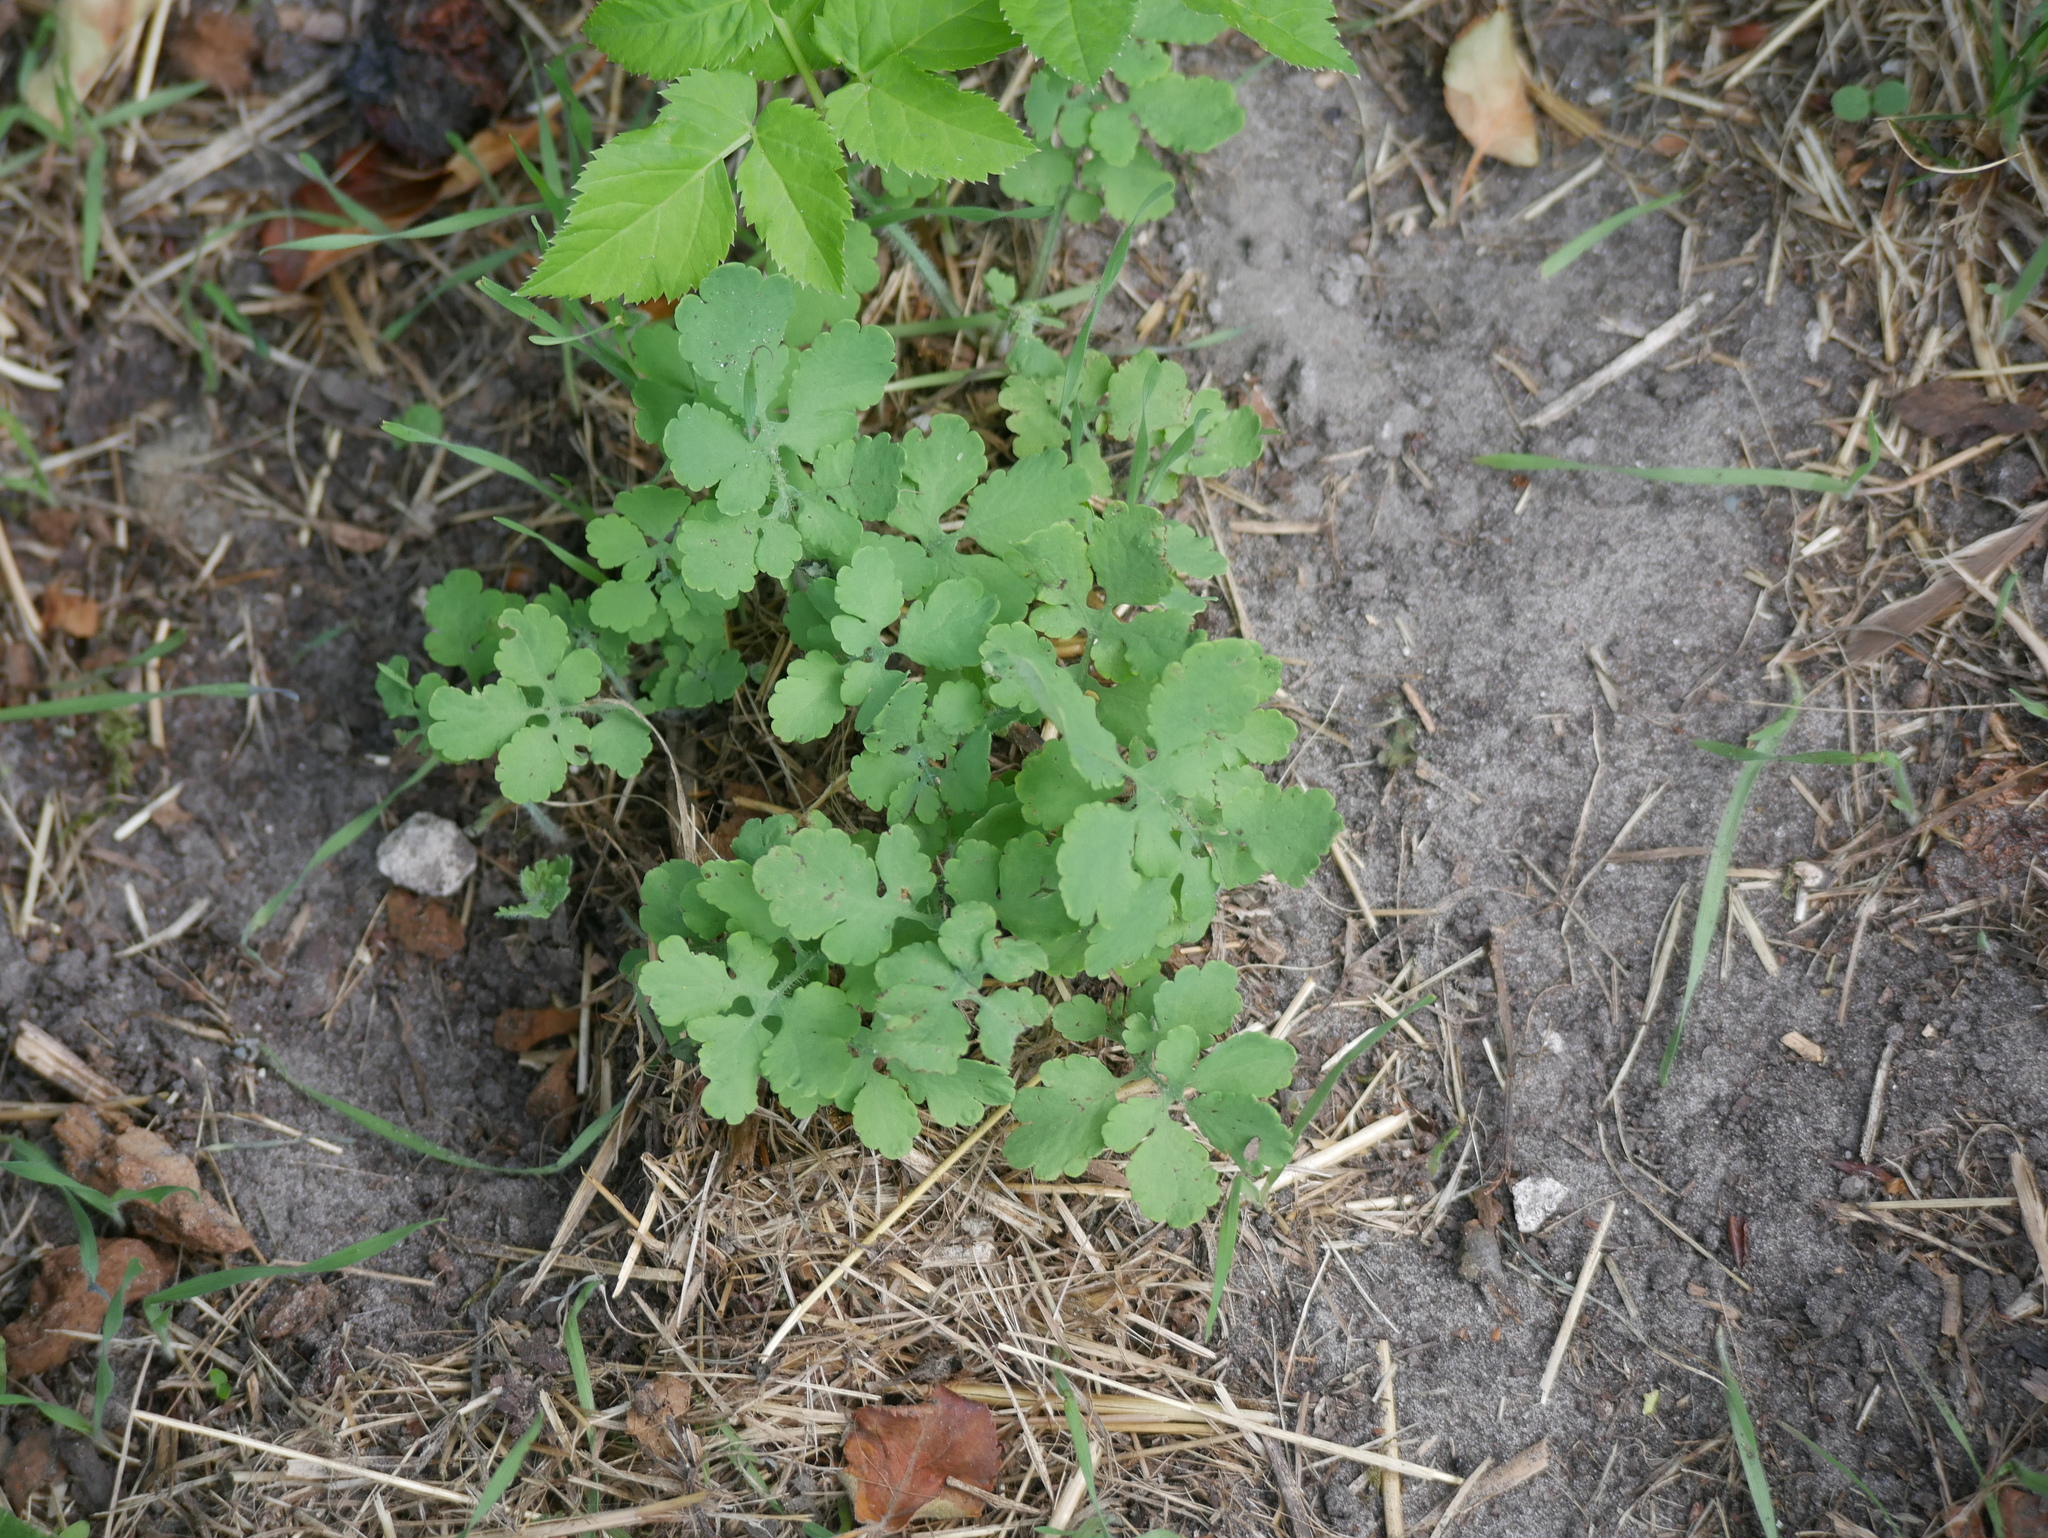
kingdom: Plantae
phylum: Tracheophyta
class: Magnoliopsida
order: Ranunculales
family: Papaveraceae
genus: Chelidonium
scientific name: Chelidonium majus
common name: Greater celandine
